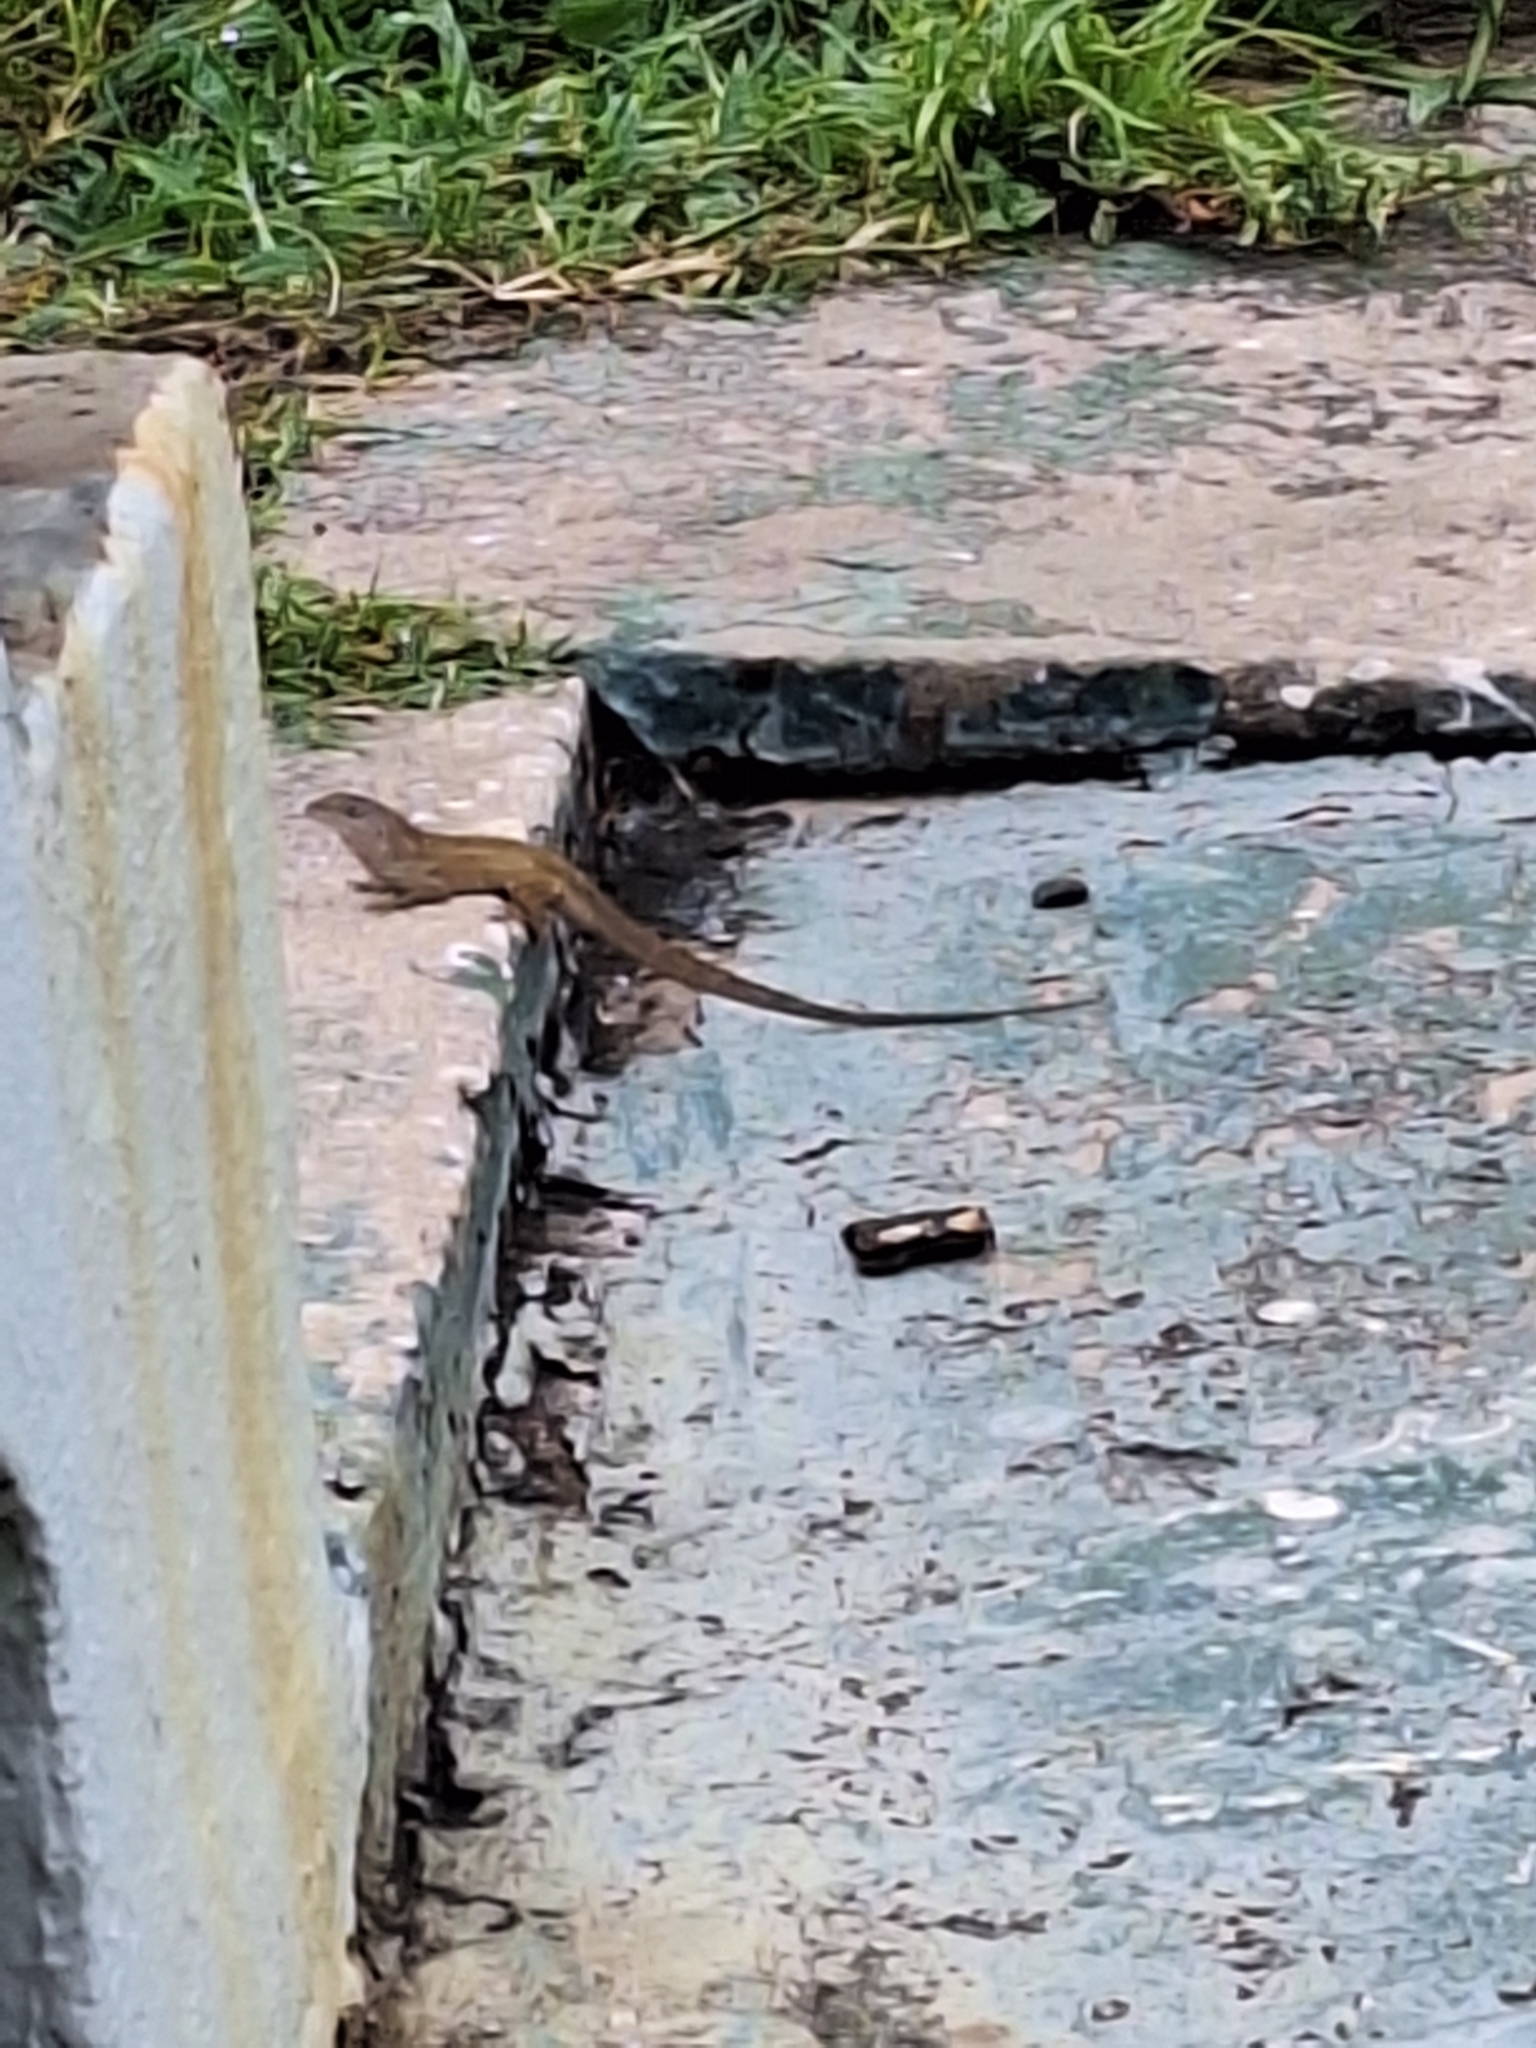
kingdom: Animalia
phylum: Chordata
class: Squamata
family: Dactyloidae
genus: Anolis
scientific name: Anolis sagrei
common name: Brown anole
